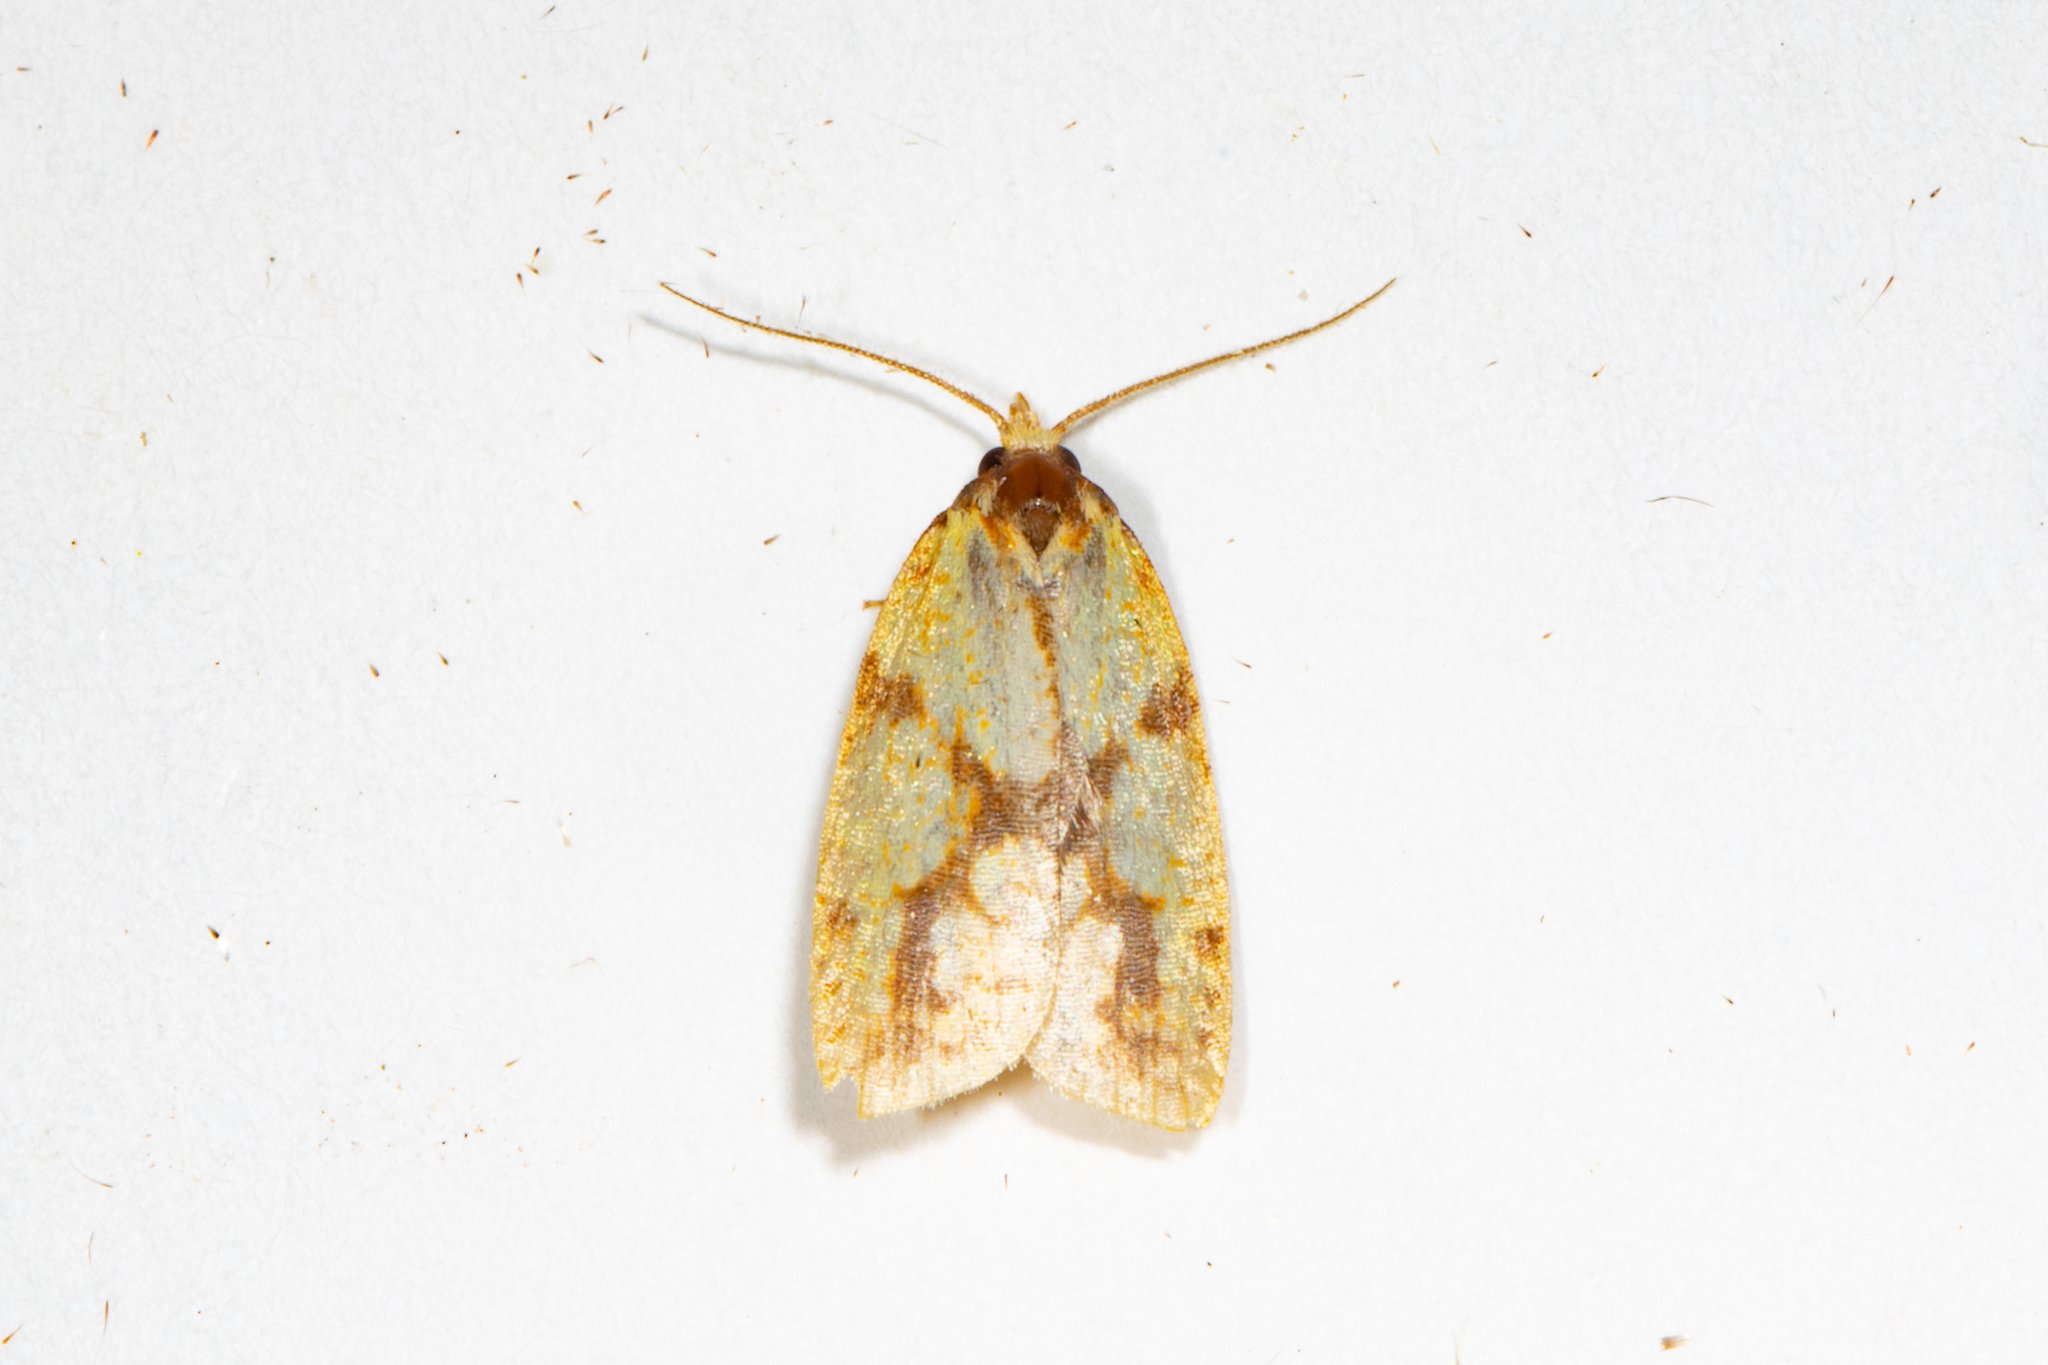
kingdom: Animalia
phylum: Arthropoda
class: Insecta
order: Lepidoptera
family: Tortricidae
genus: Sparganothis
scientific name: Sparganothis sulfureana
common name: Sparganothis fruitworm moth
